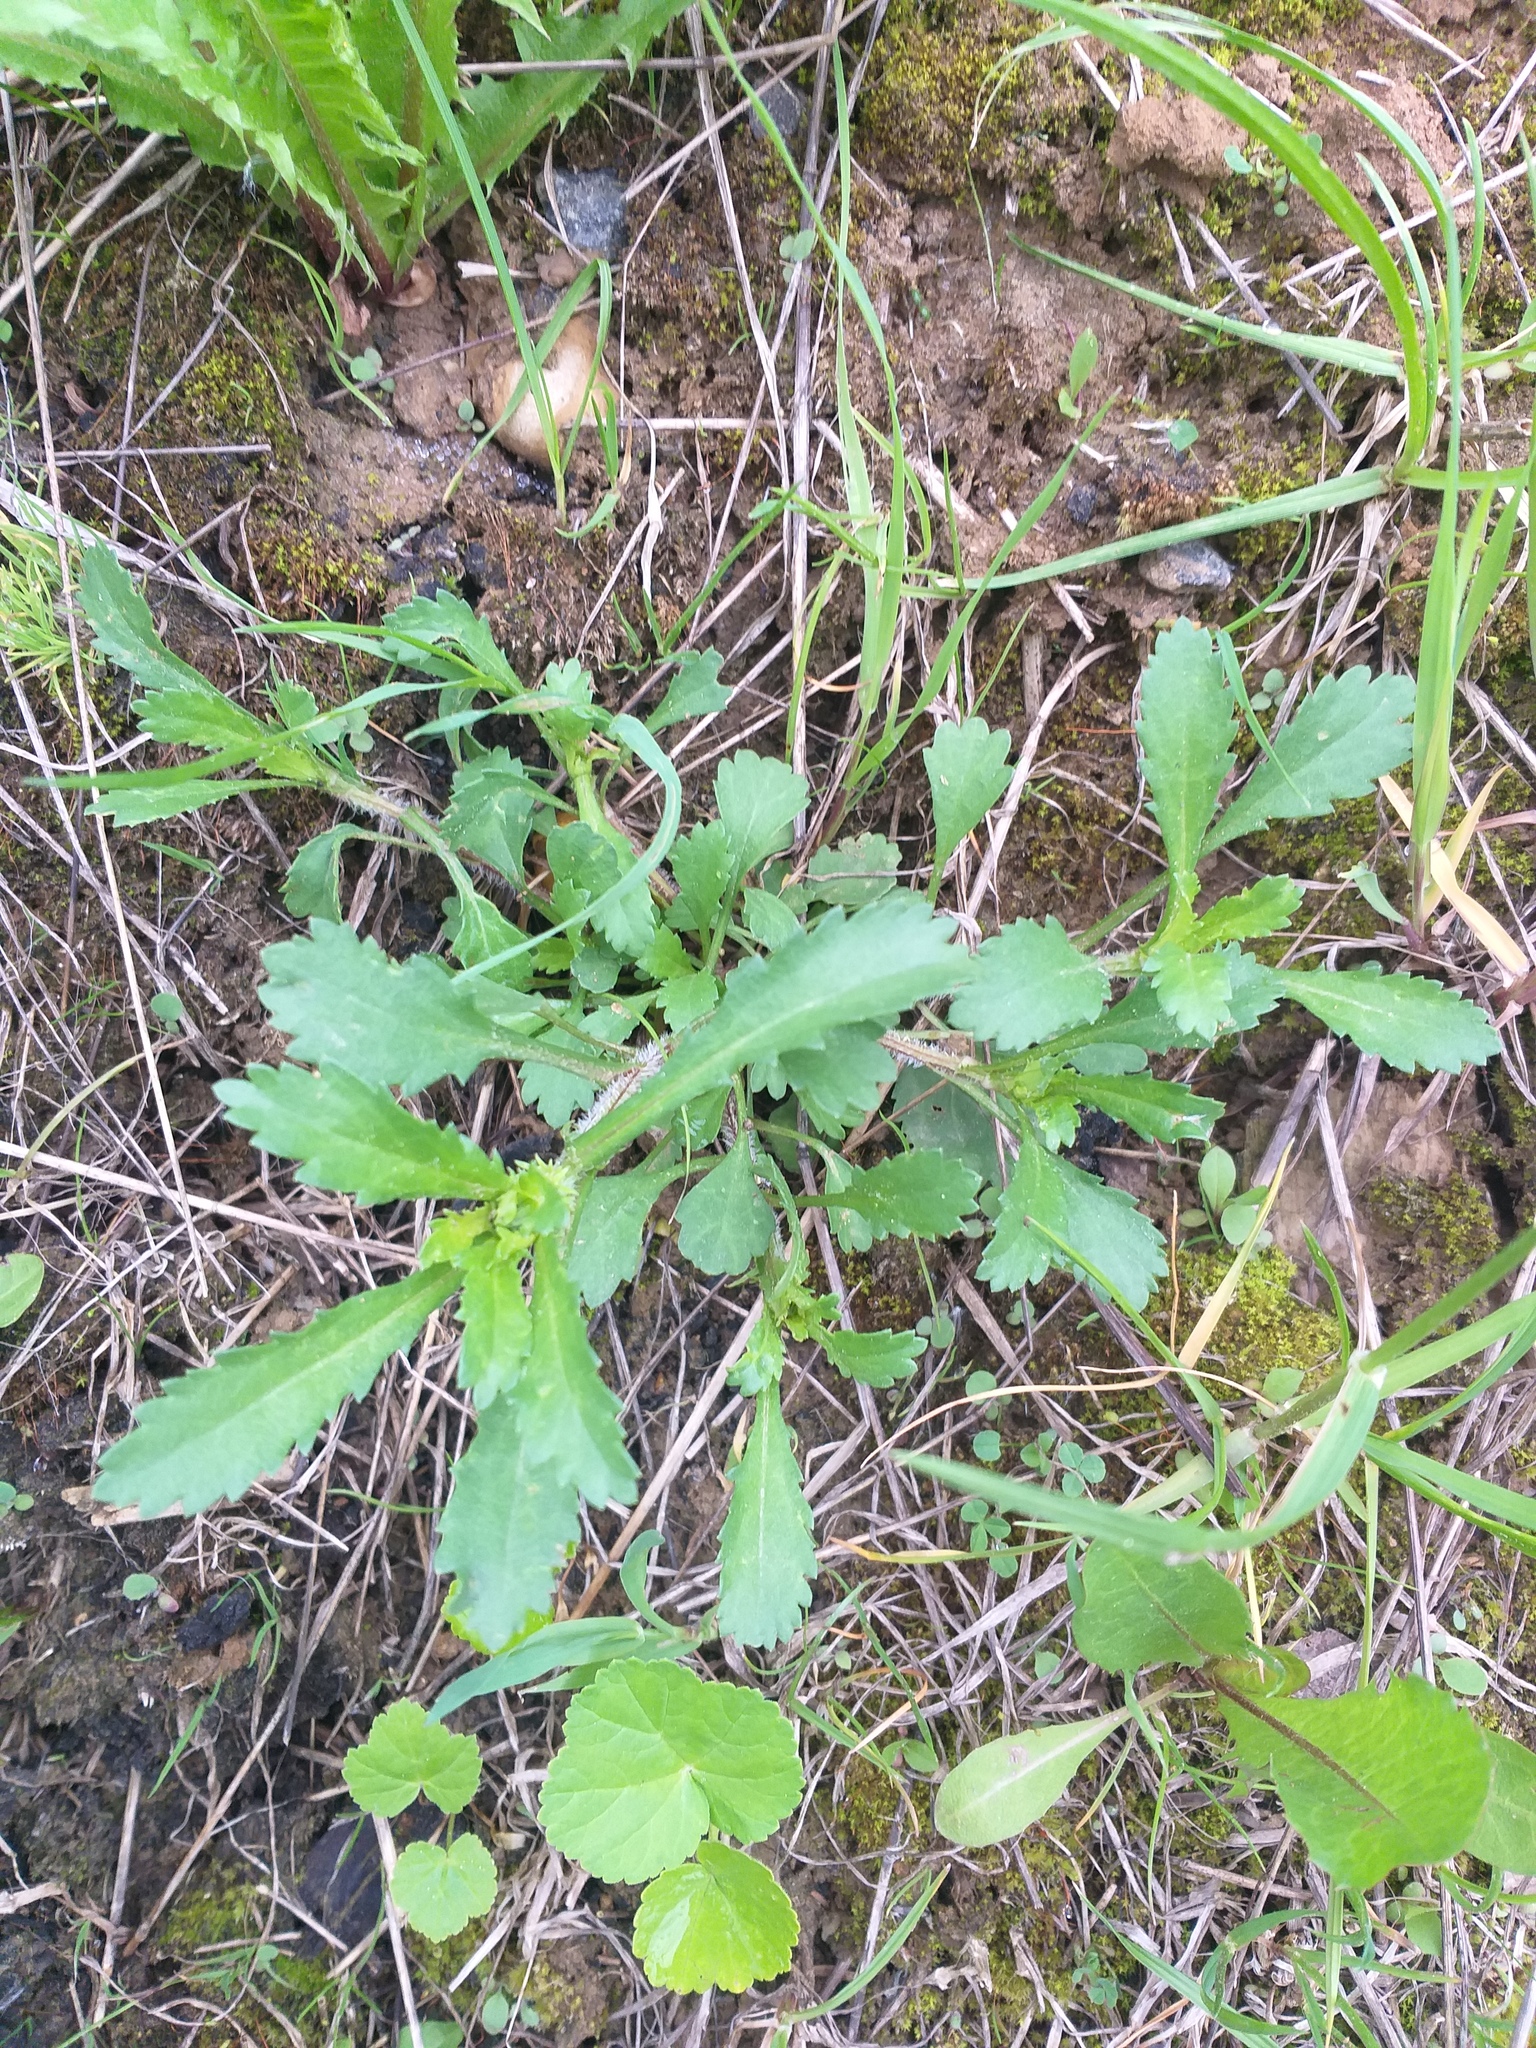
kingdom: Plantae
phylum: Tracheophyta
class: Magnoliopsida
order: Asterales
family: Asteraceae
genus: Leucanthemum
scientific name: Leucanthemum vulgare
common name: Oxeye daisy
